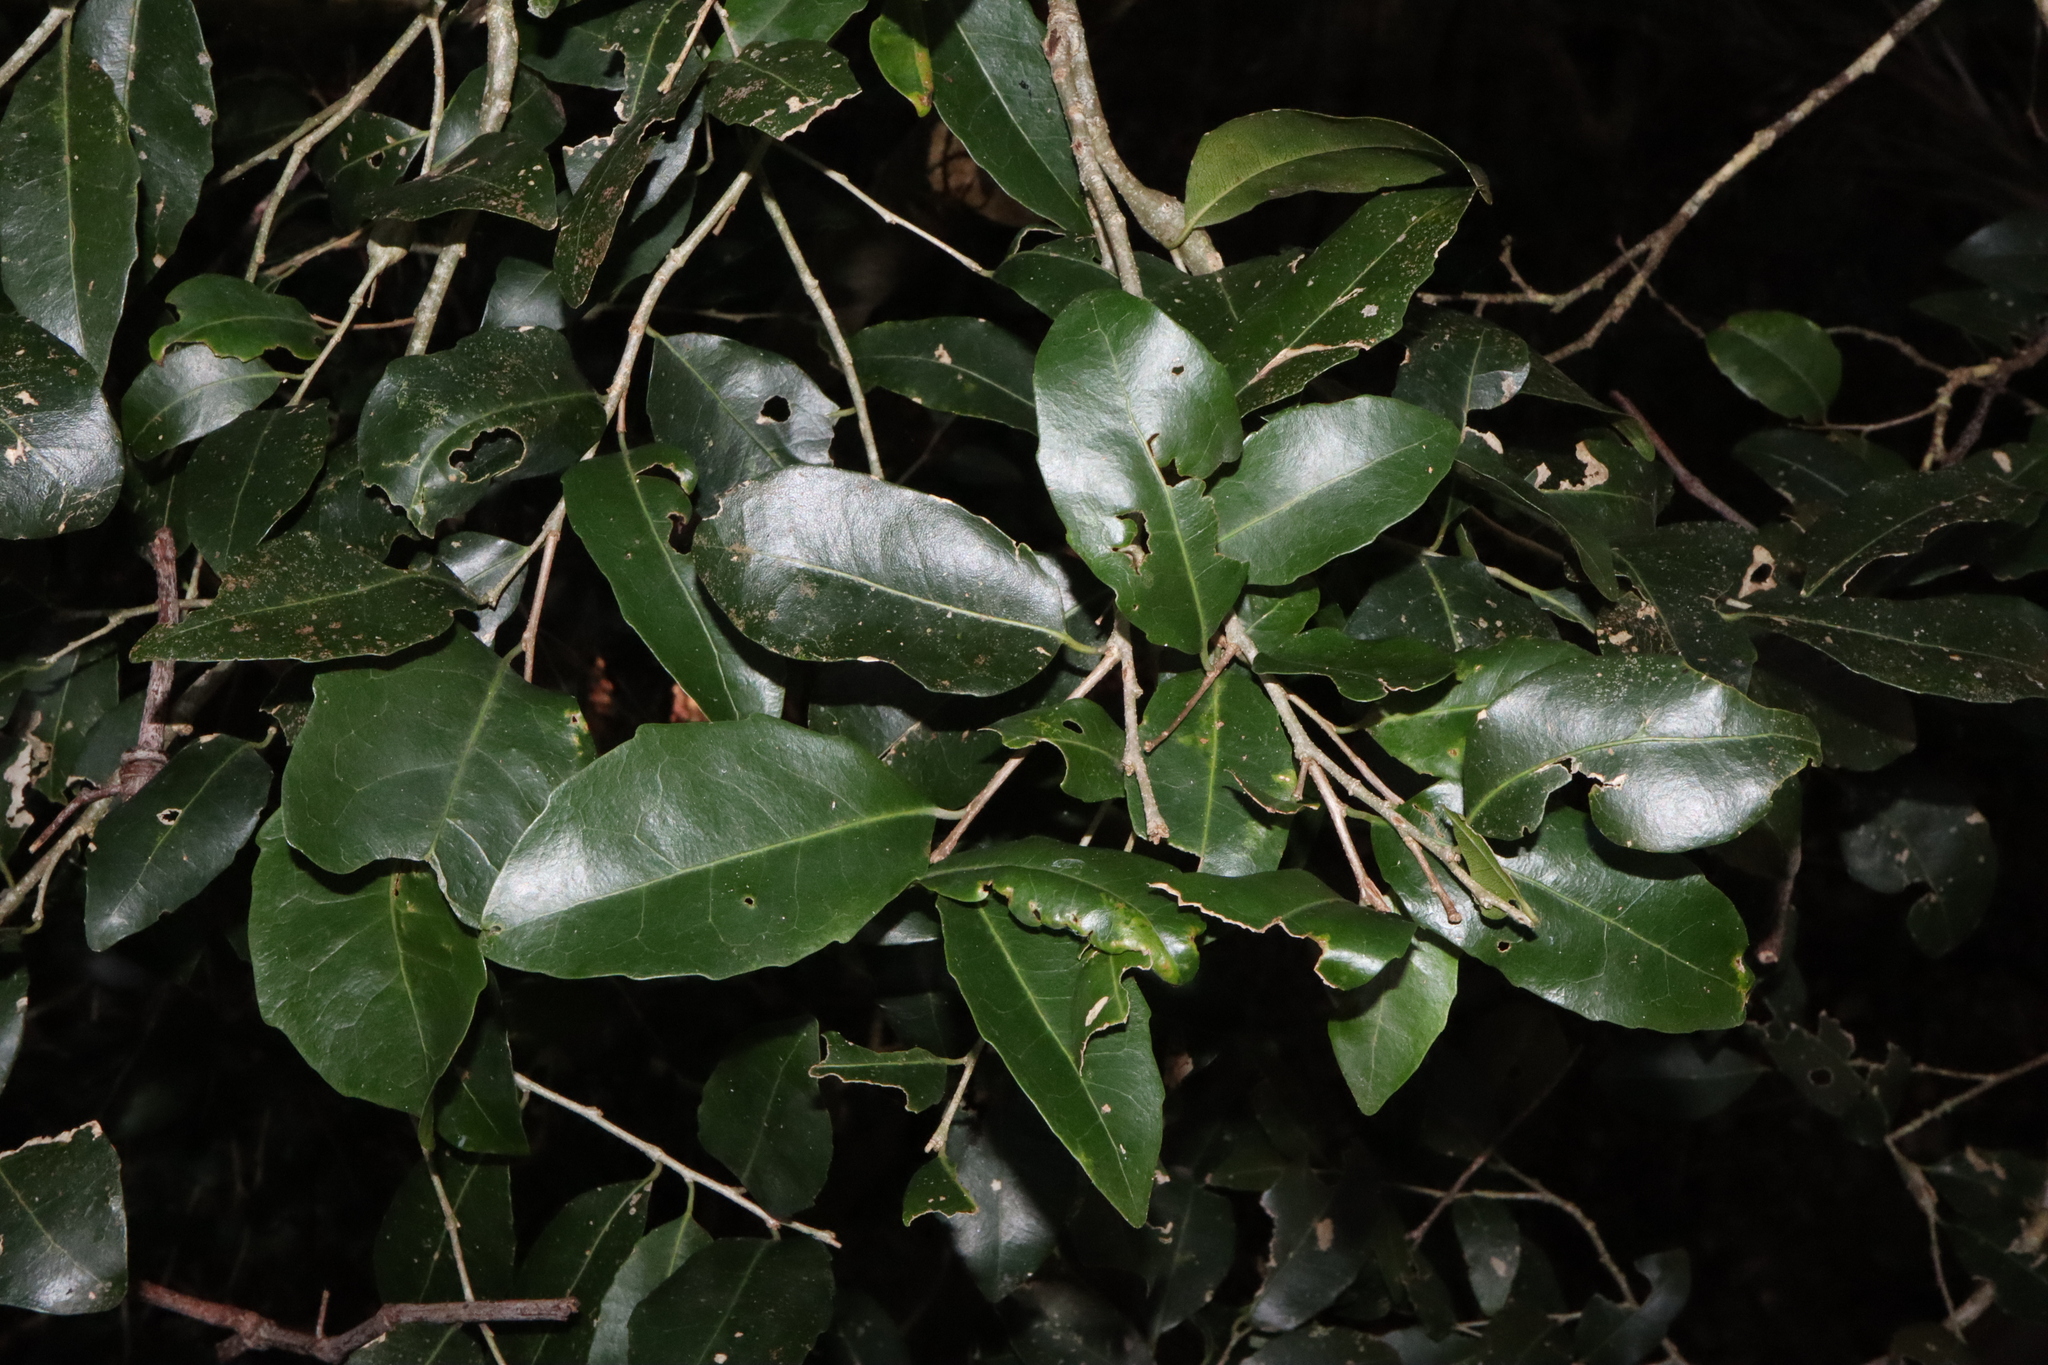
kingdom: Plantae
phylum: Tracheophyta
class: Magnoliopsida
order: Malpighiales
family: Putranjivaceae
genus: Drypetes
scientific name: Drypetes deplanchei
